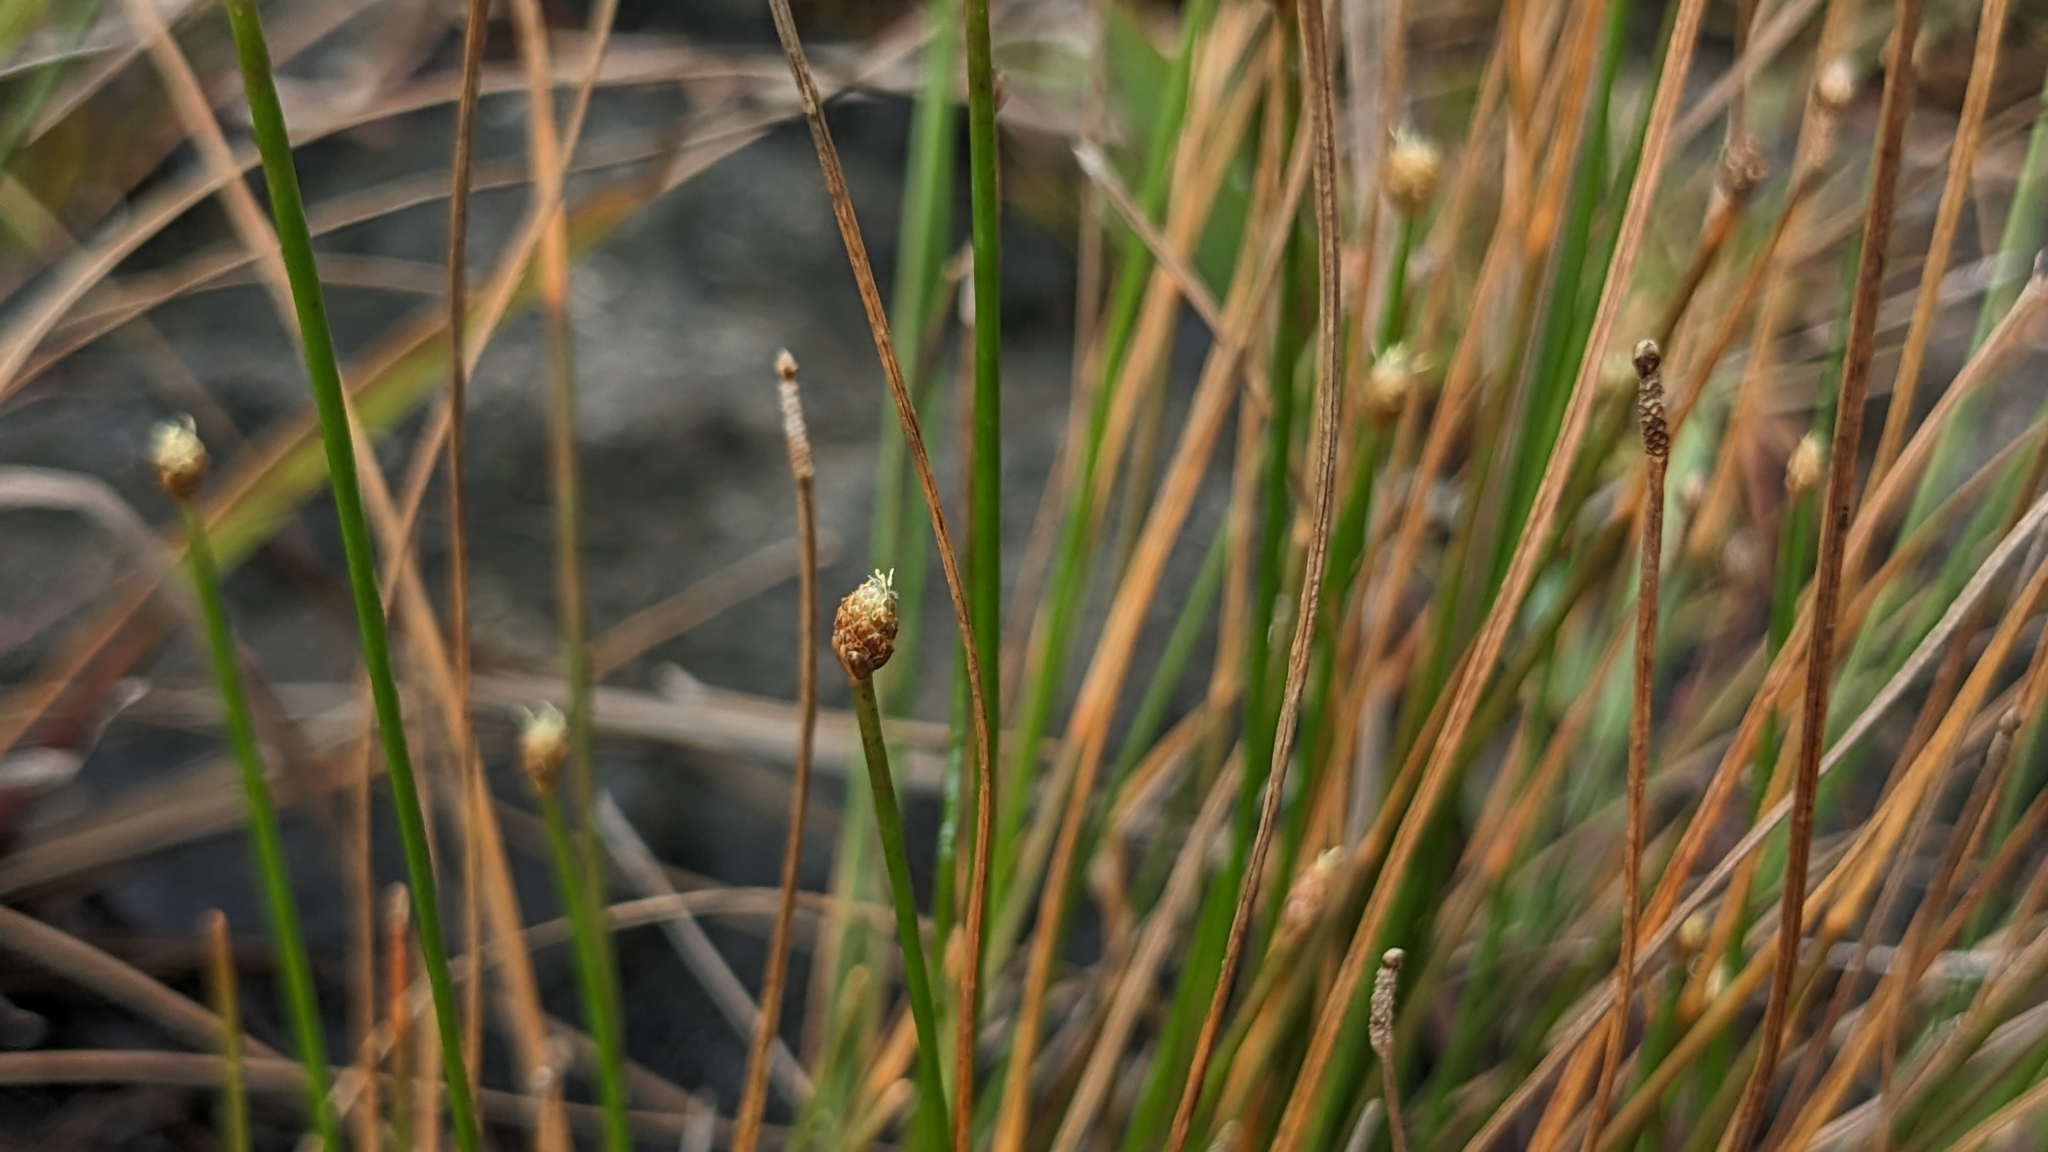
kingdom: Plantae
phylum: Tracheophyta
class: Liliopsida
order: Poales
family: Cyperaceae
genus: Eleocharis
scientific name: Eleocharis geniculata
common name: Canada spikesedge
